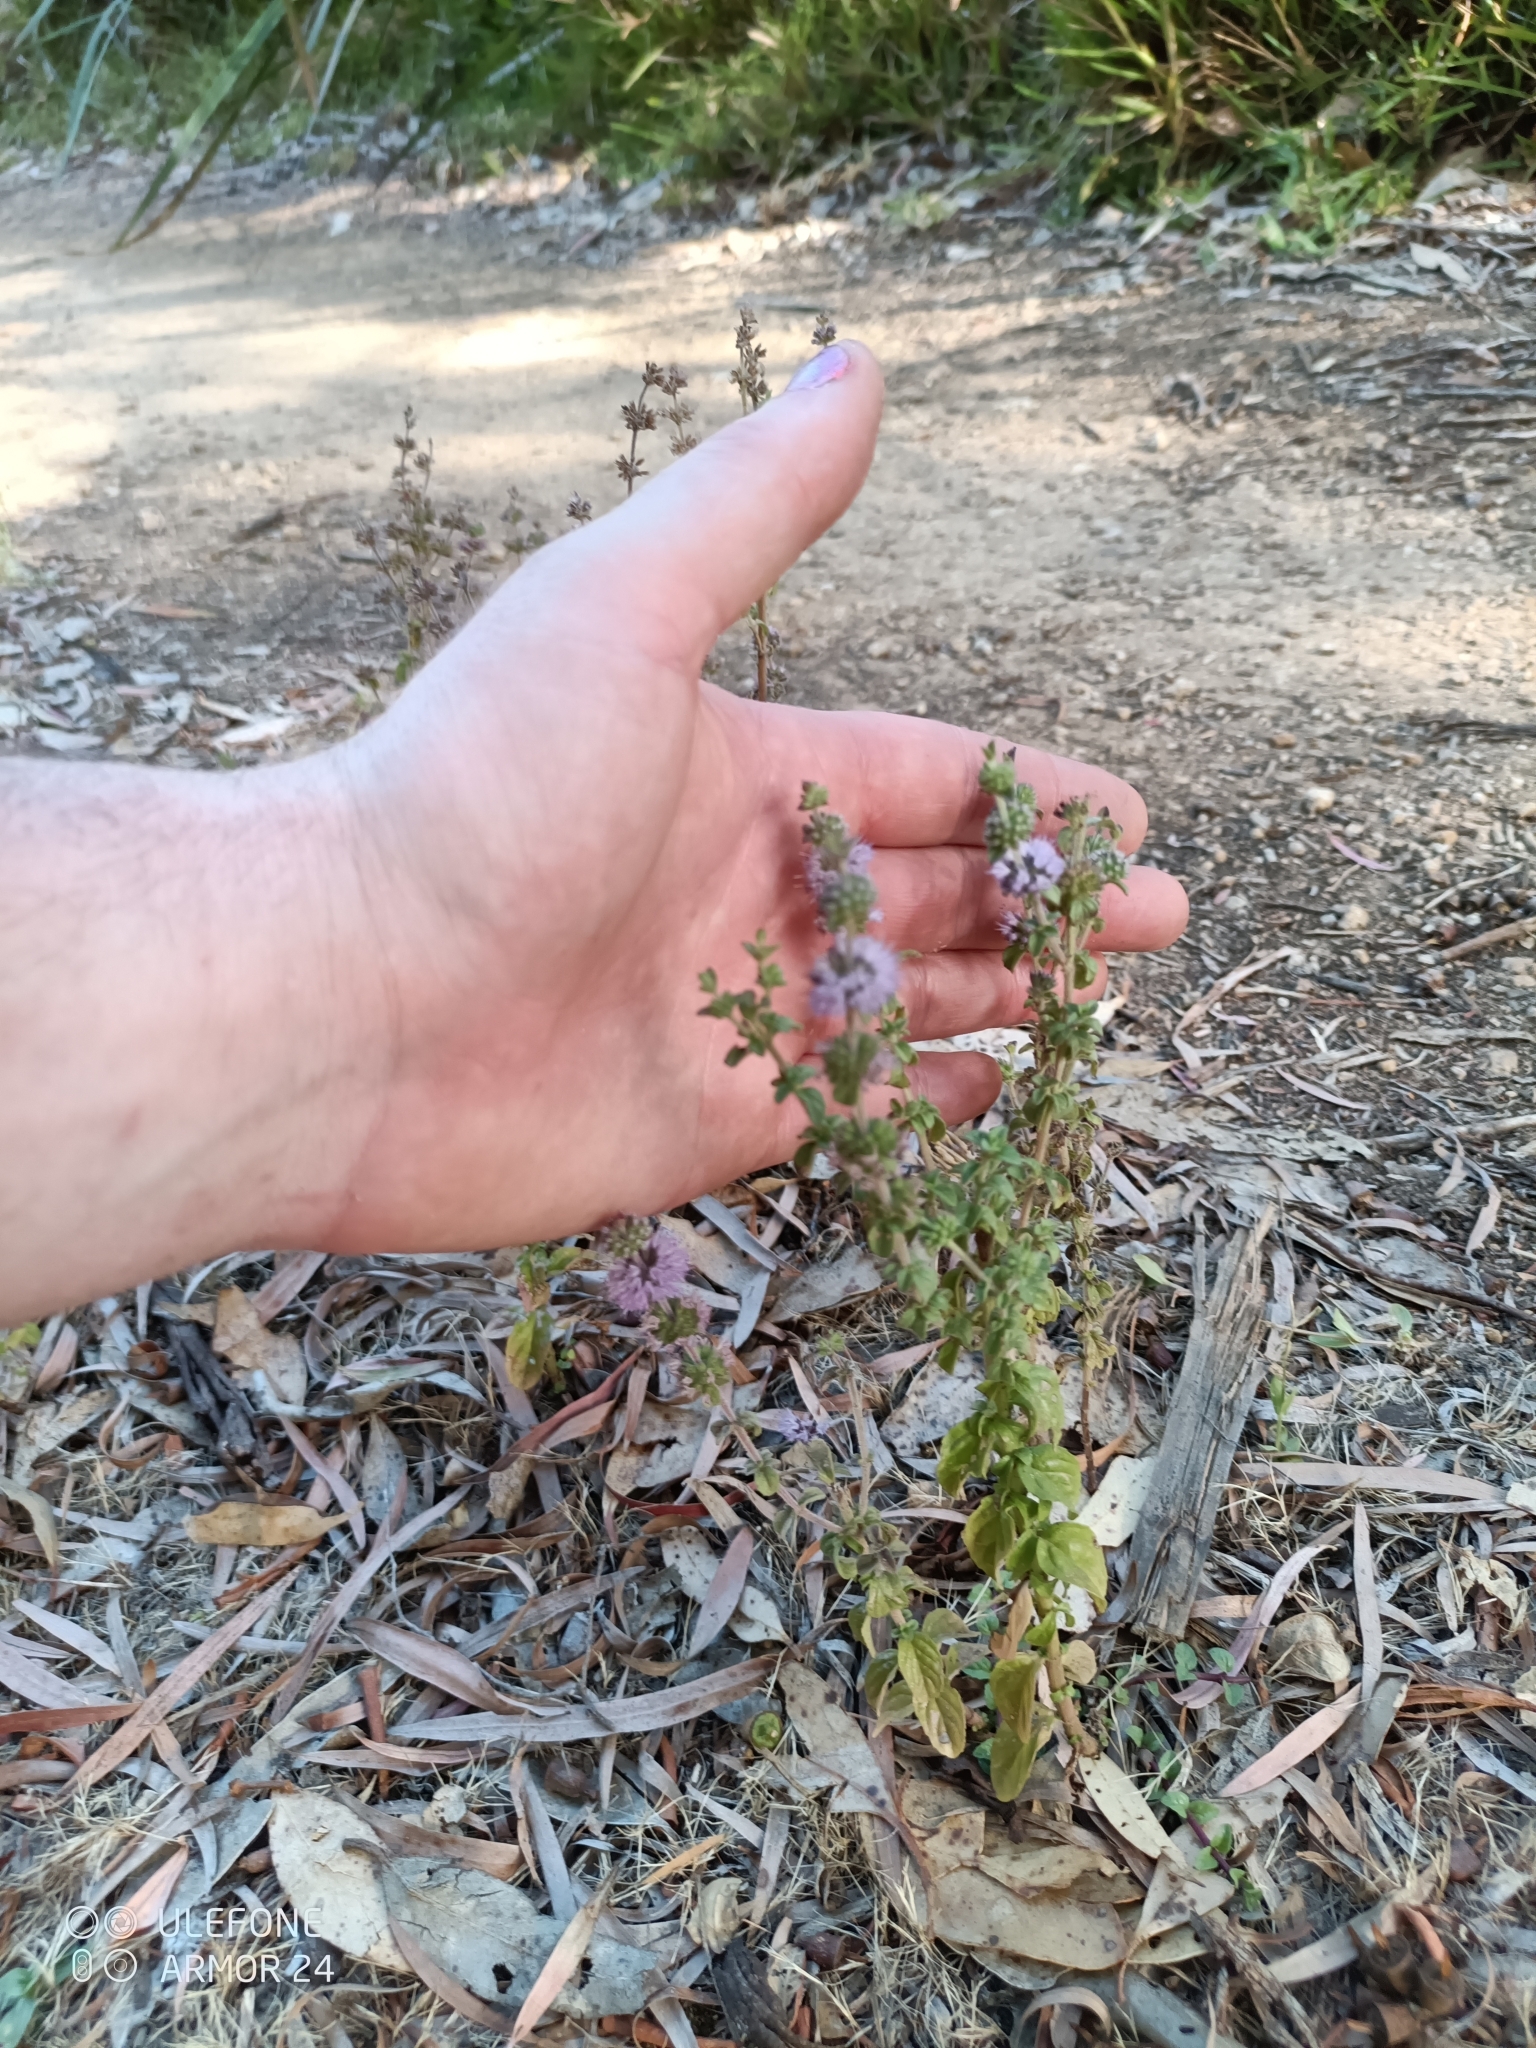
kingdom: Plantae
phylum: Tracheophyta
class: Magnoliopsida
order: Lamiales
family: Lamiaceae
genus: Mentha
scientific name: Mentha pulegium
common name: Pennyroyal
